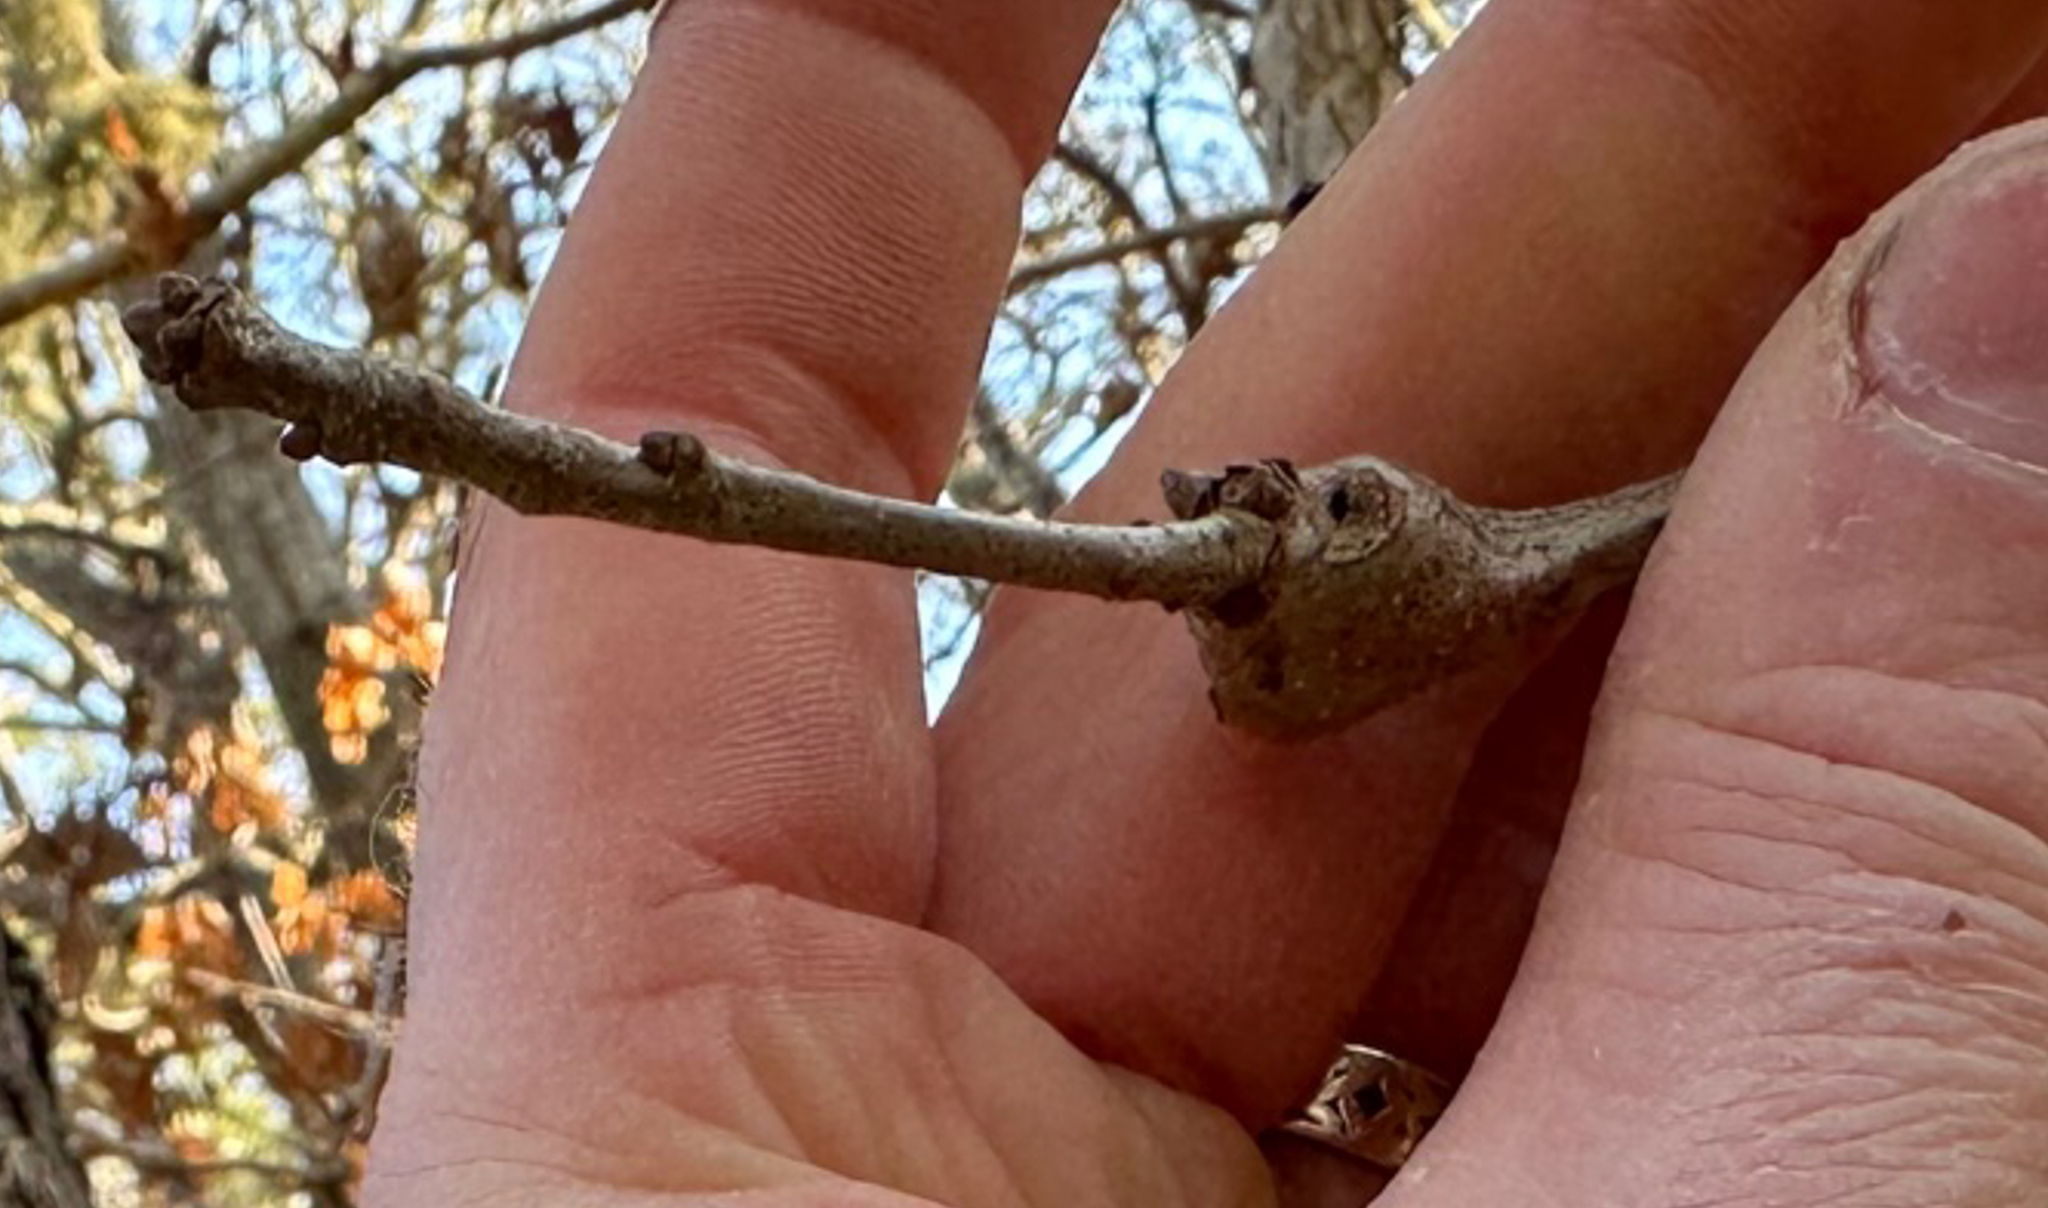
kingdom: Animalia
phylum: Arthropoda
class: Insecta
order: Hymenoptera
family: Cynipidae
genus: Callirhytis
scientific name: Callirhytis clavula
